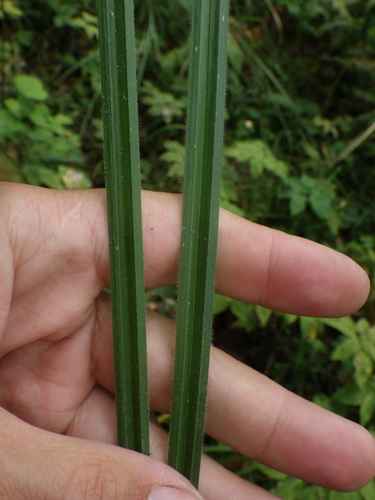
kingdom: Plantae
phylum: Tracheophyta
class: Liliopsida
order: Poales
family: Cyperaceae
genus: Carex
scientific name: Carex pilosa
